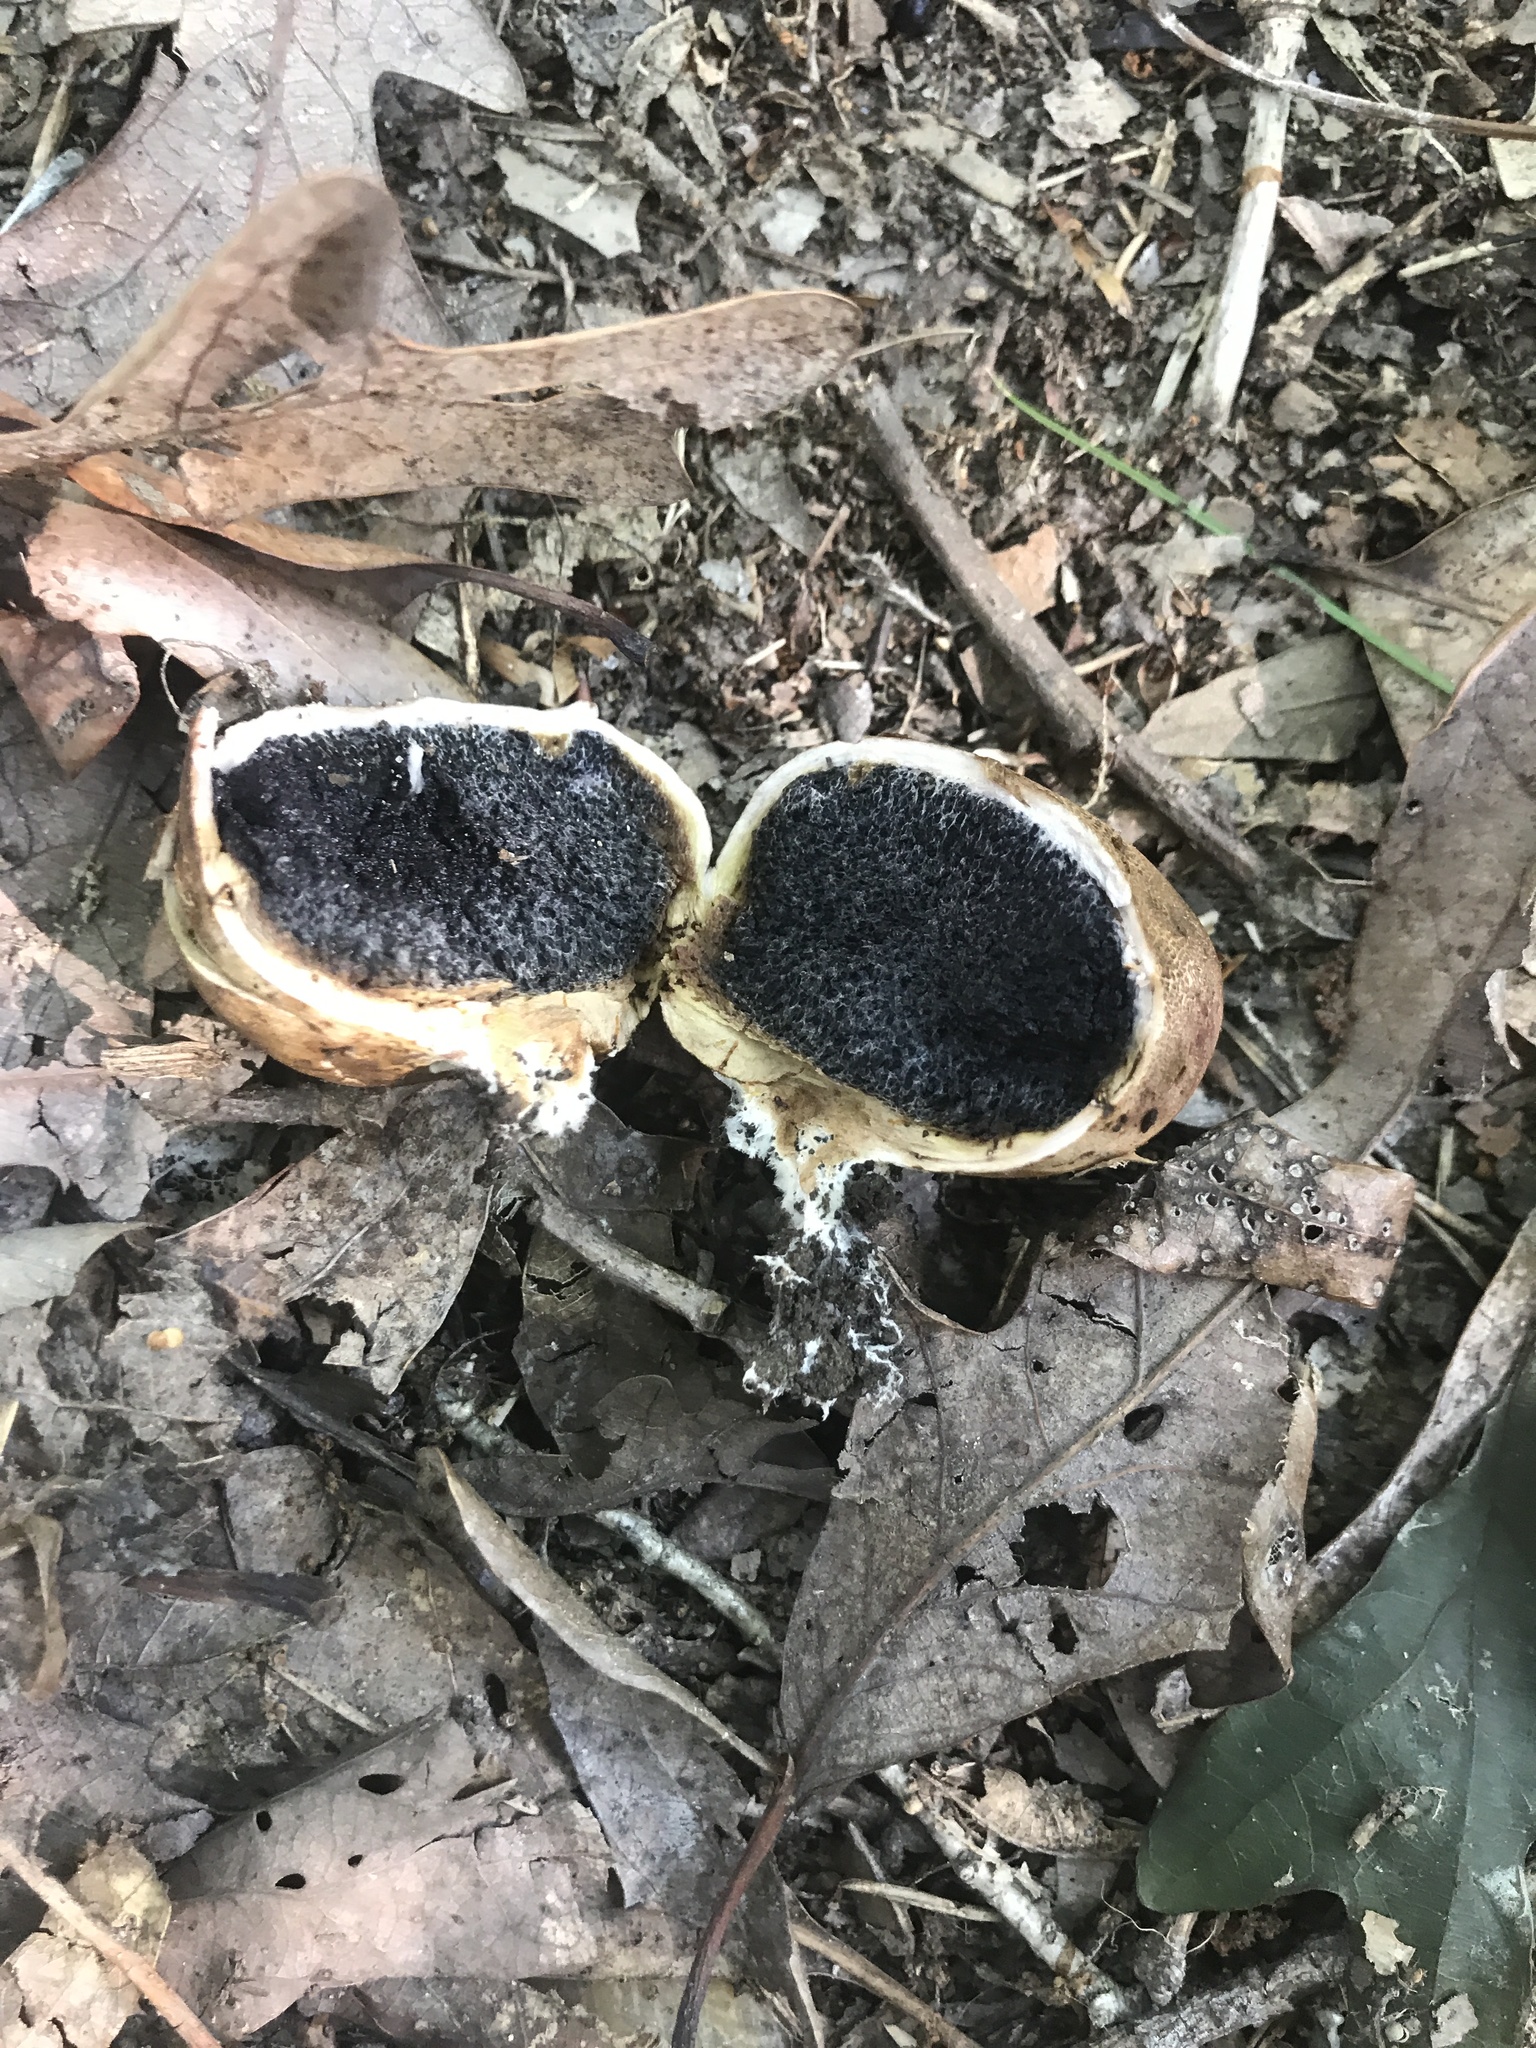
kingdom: Fungi
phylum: Basidiomycota
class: Agaricomycetes
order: Boletales
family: Sclerodermataceae
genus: Scleroderma
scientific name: Scleroderma cepa
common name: Onion earthball
